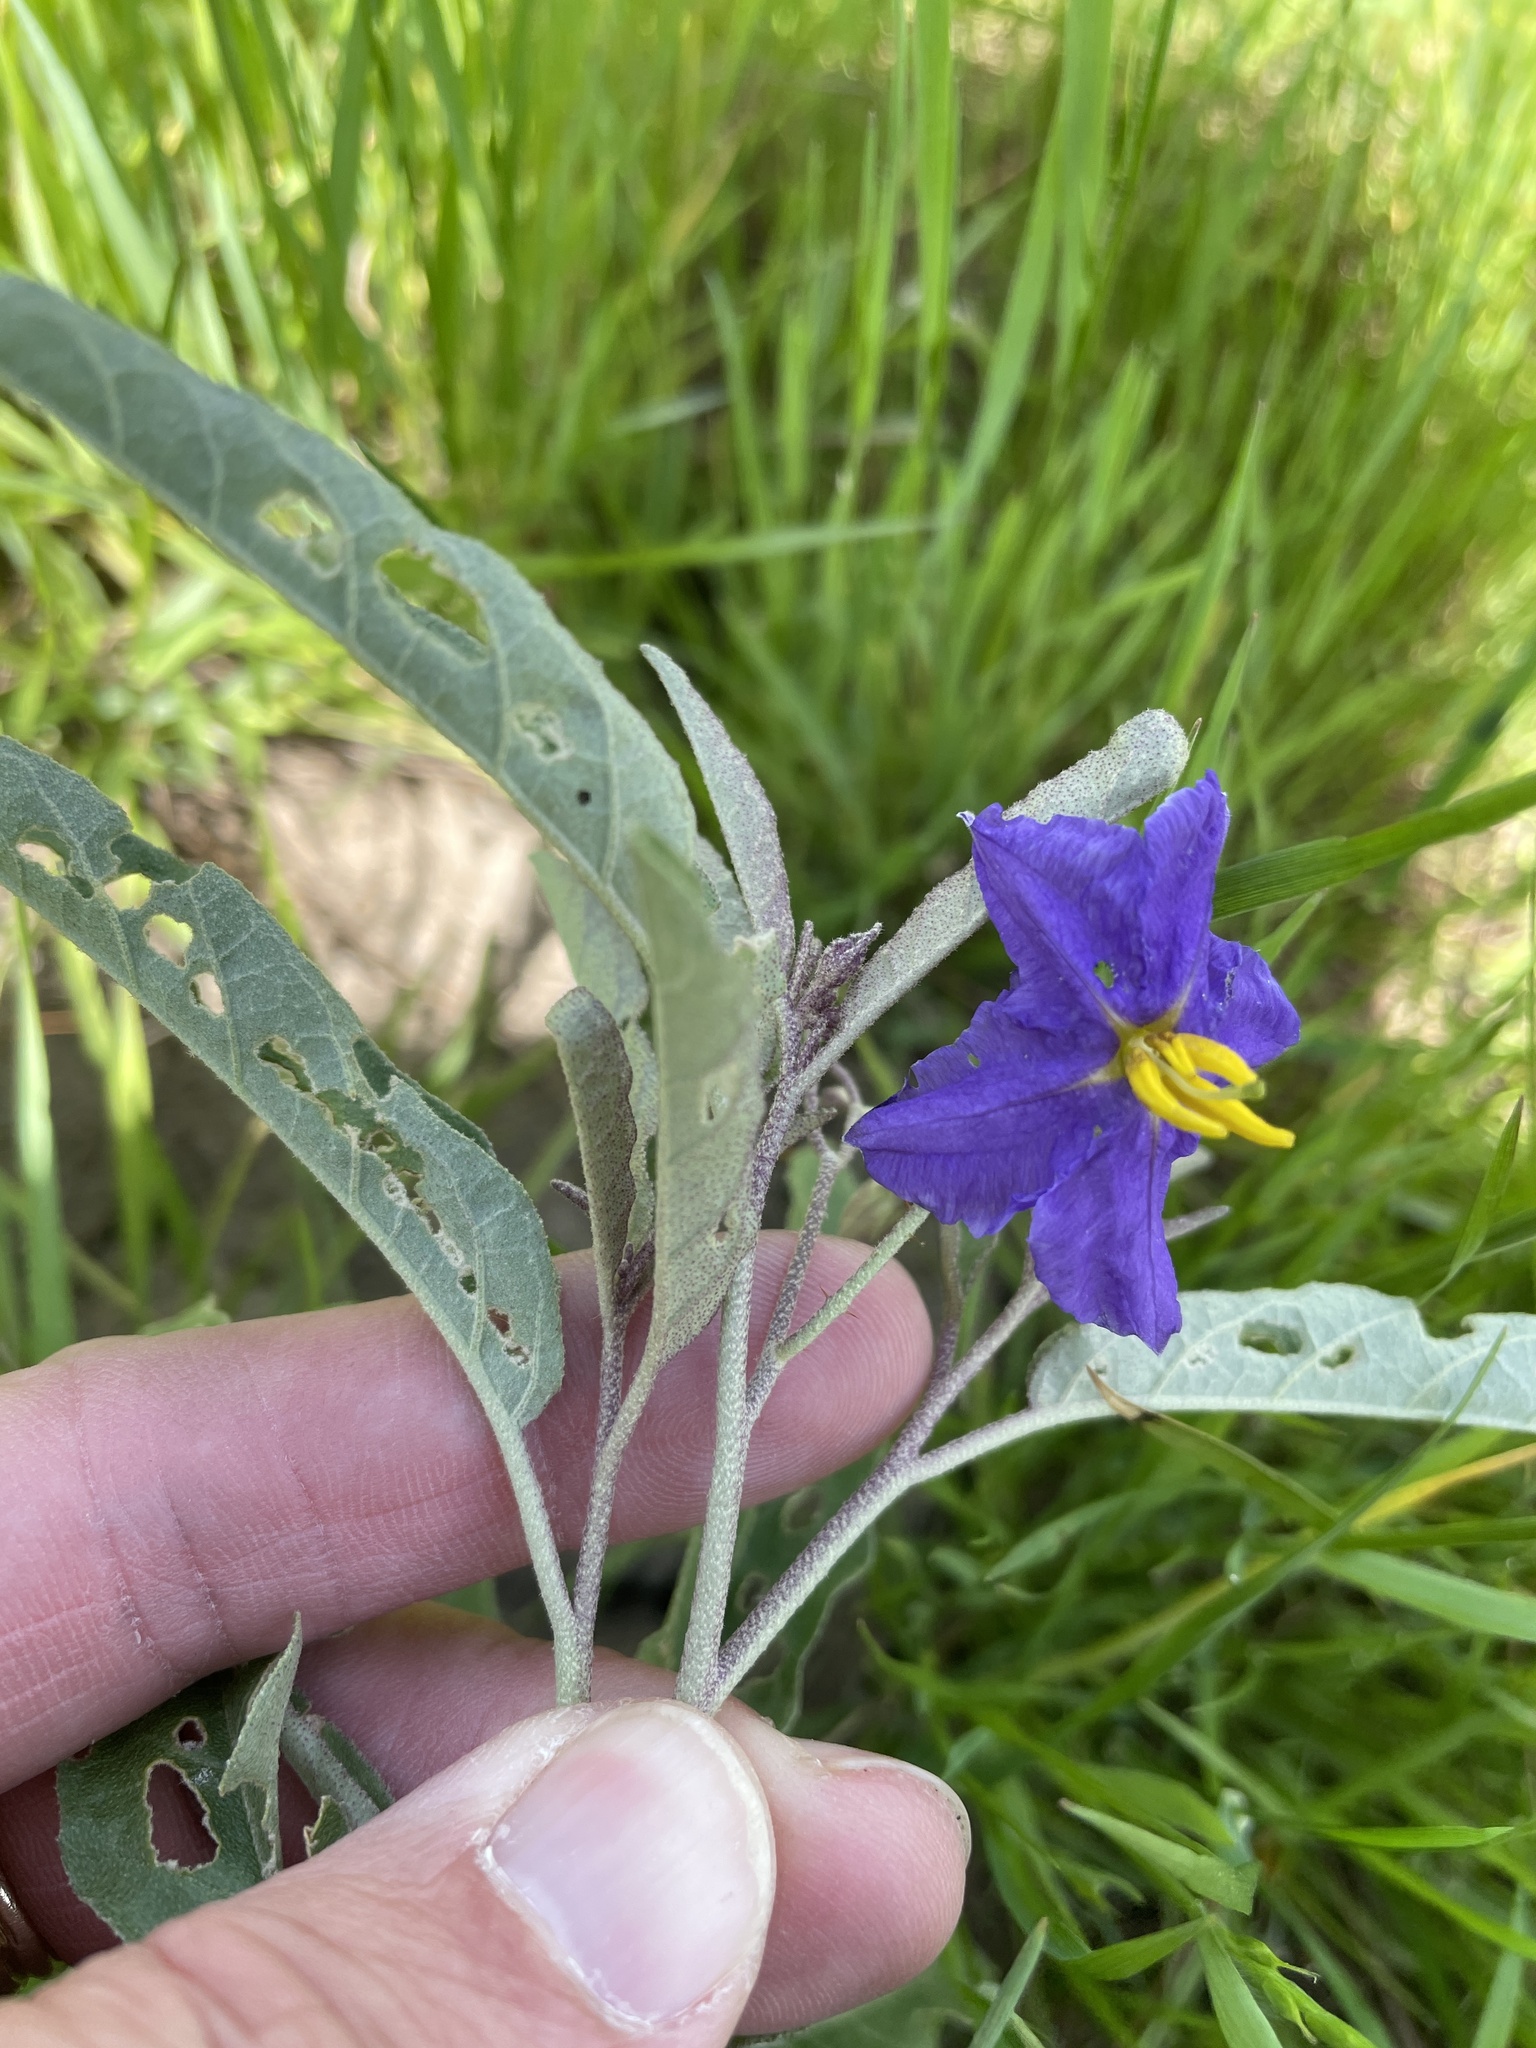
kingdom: Plantae
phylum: Tracheophyta
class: Magnoliopsida
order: Solanales
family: Solanaceae
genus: Solanum
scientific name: Solanum elaeagnifolium
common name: Silverleaf nightshade
